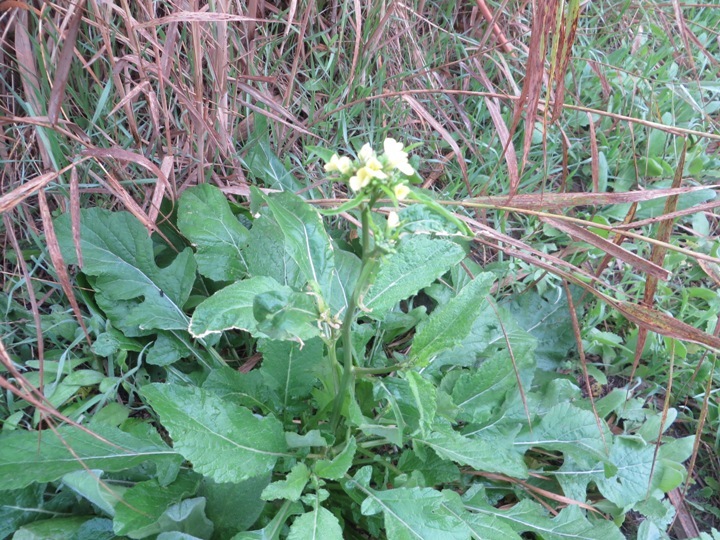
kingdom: Plantae
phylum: Tracheophyta
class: Magnoliopsida
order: Brassicales
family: Brassicaceae
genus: Raphanus
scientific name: Raphanus raphanistrum
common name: Wild radish
